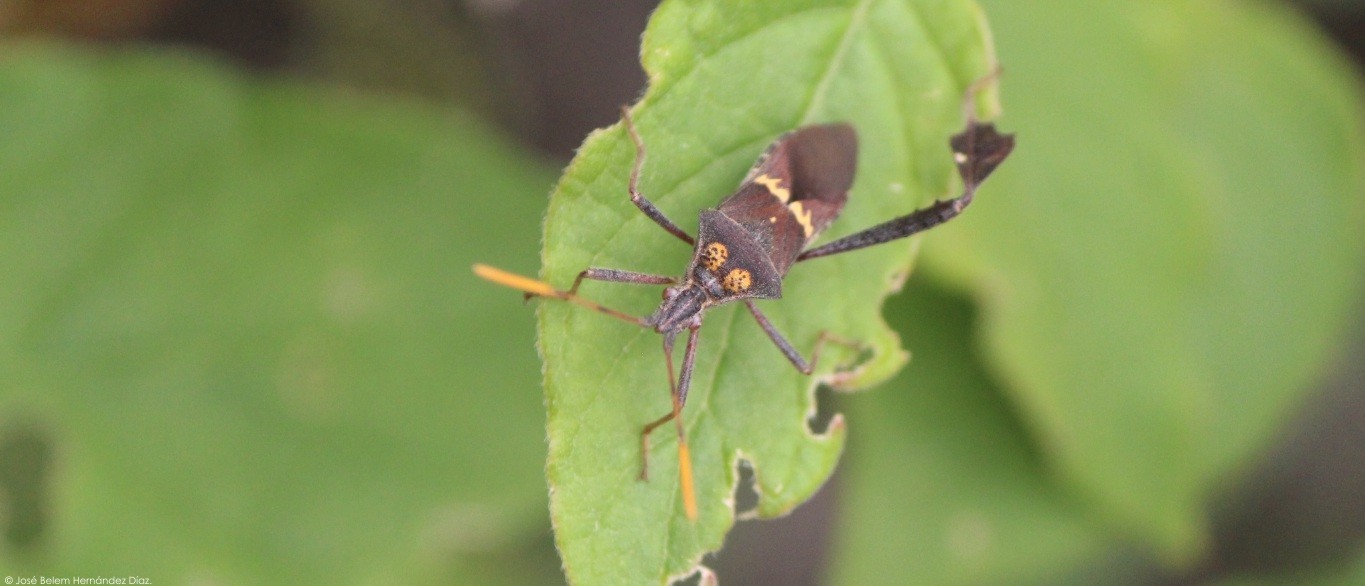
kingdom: Animalia
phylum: Arthropoda
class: Insecta
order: Hemiptera
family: Coreidae
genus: Leptoglossus
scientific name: Leptoglossus zonatus
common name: Large-legged bug
